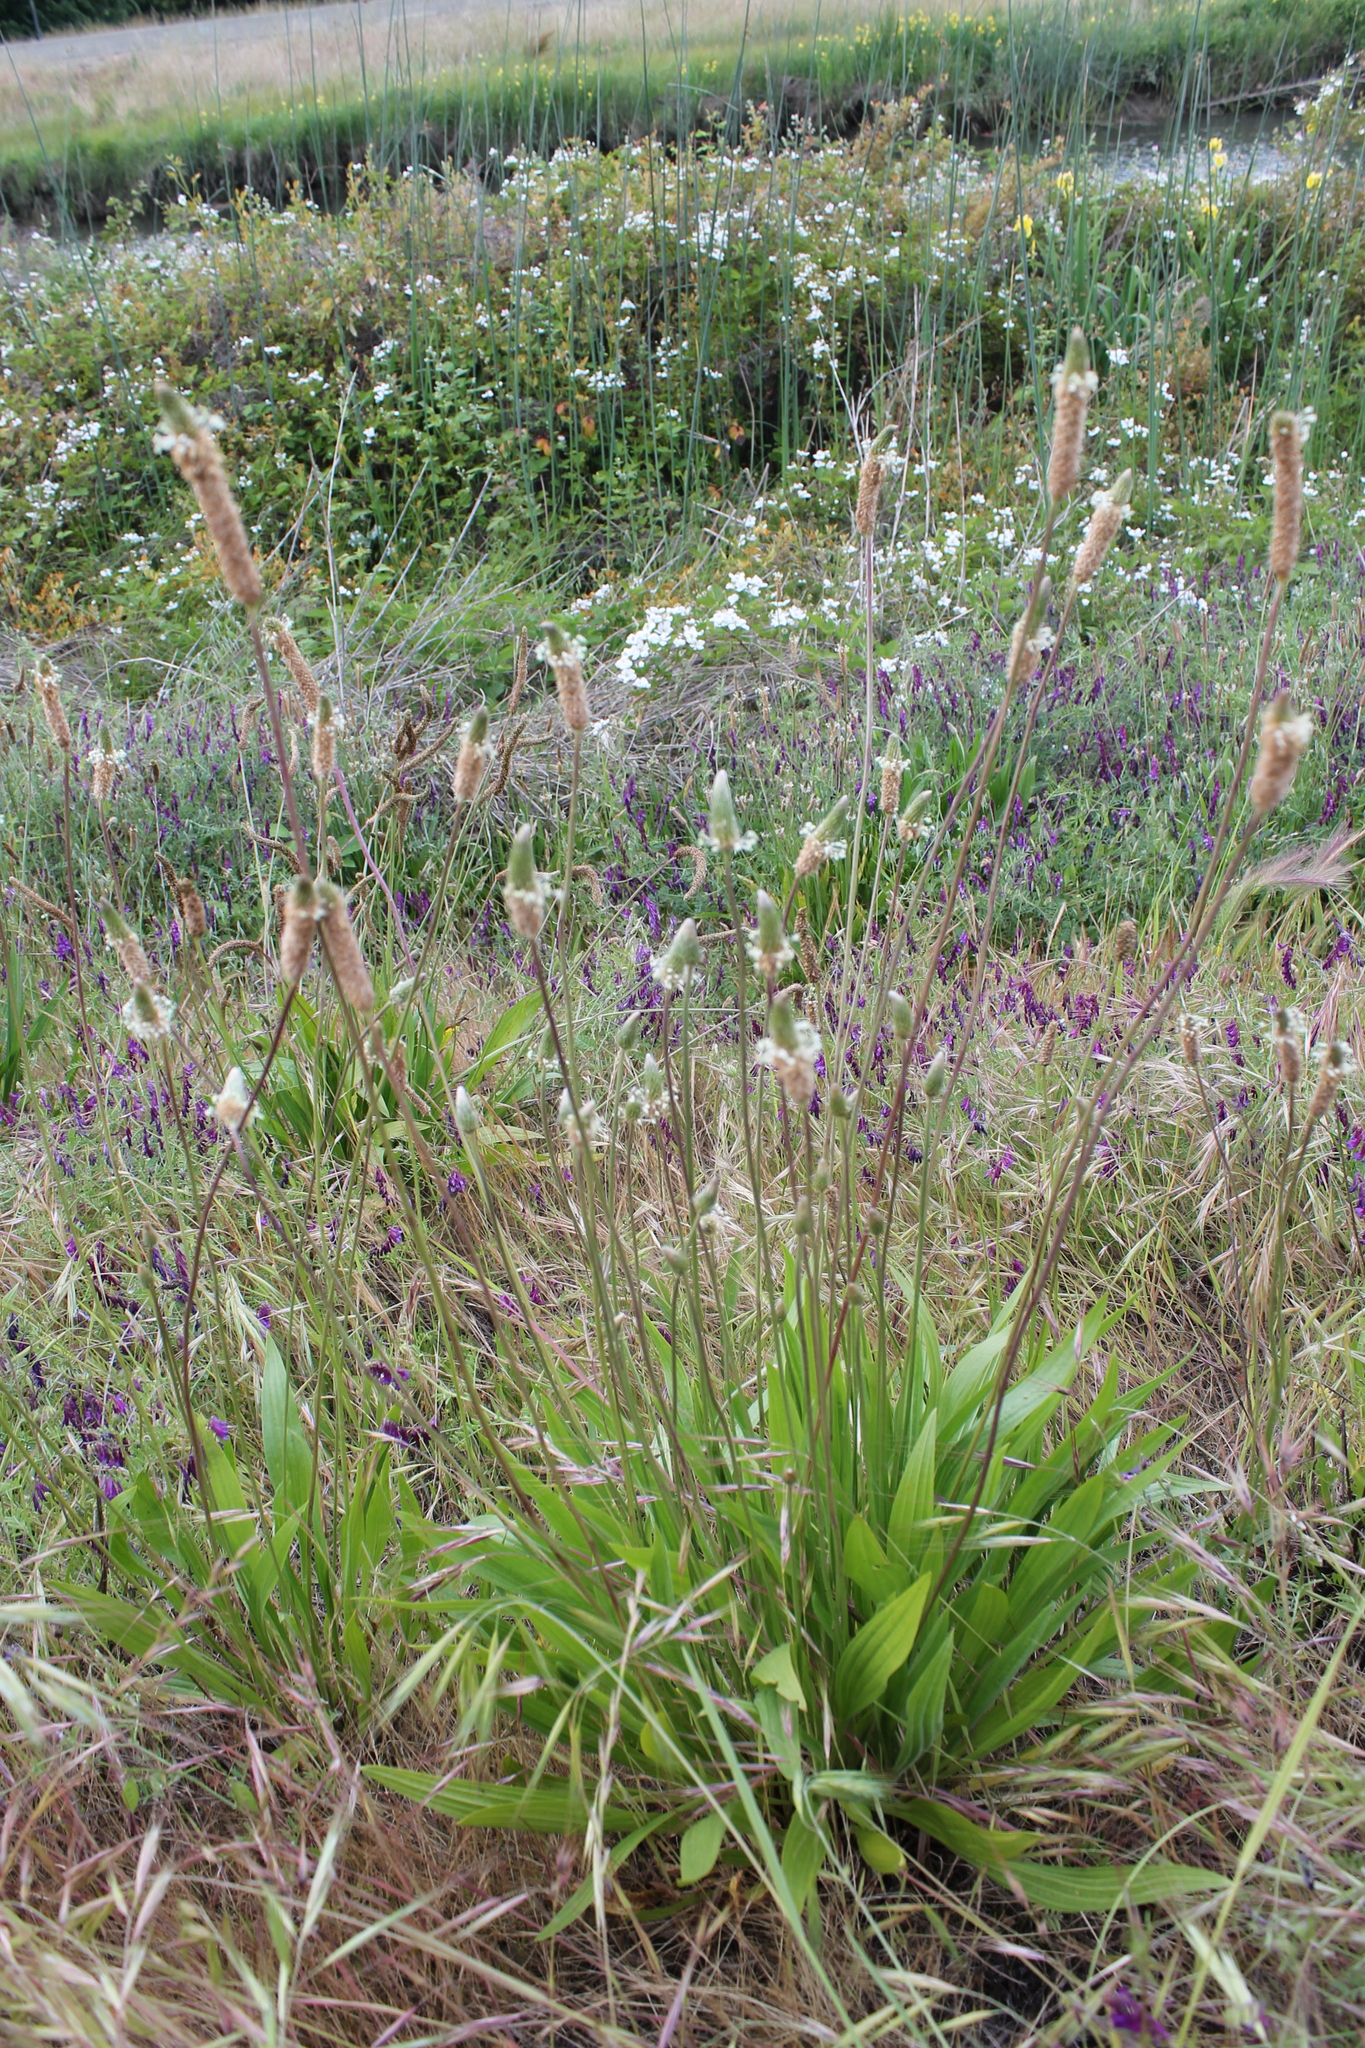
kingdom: Plantae
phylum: Tracheophyta
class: Magnoliopsida
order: Lamiales
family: Plantaginaceae
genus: Plantago
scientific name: Plantago lanceolata
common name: Ribwort plantain
